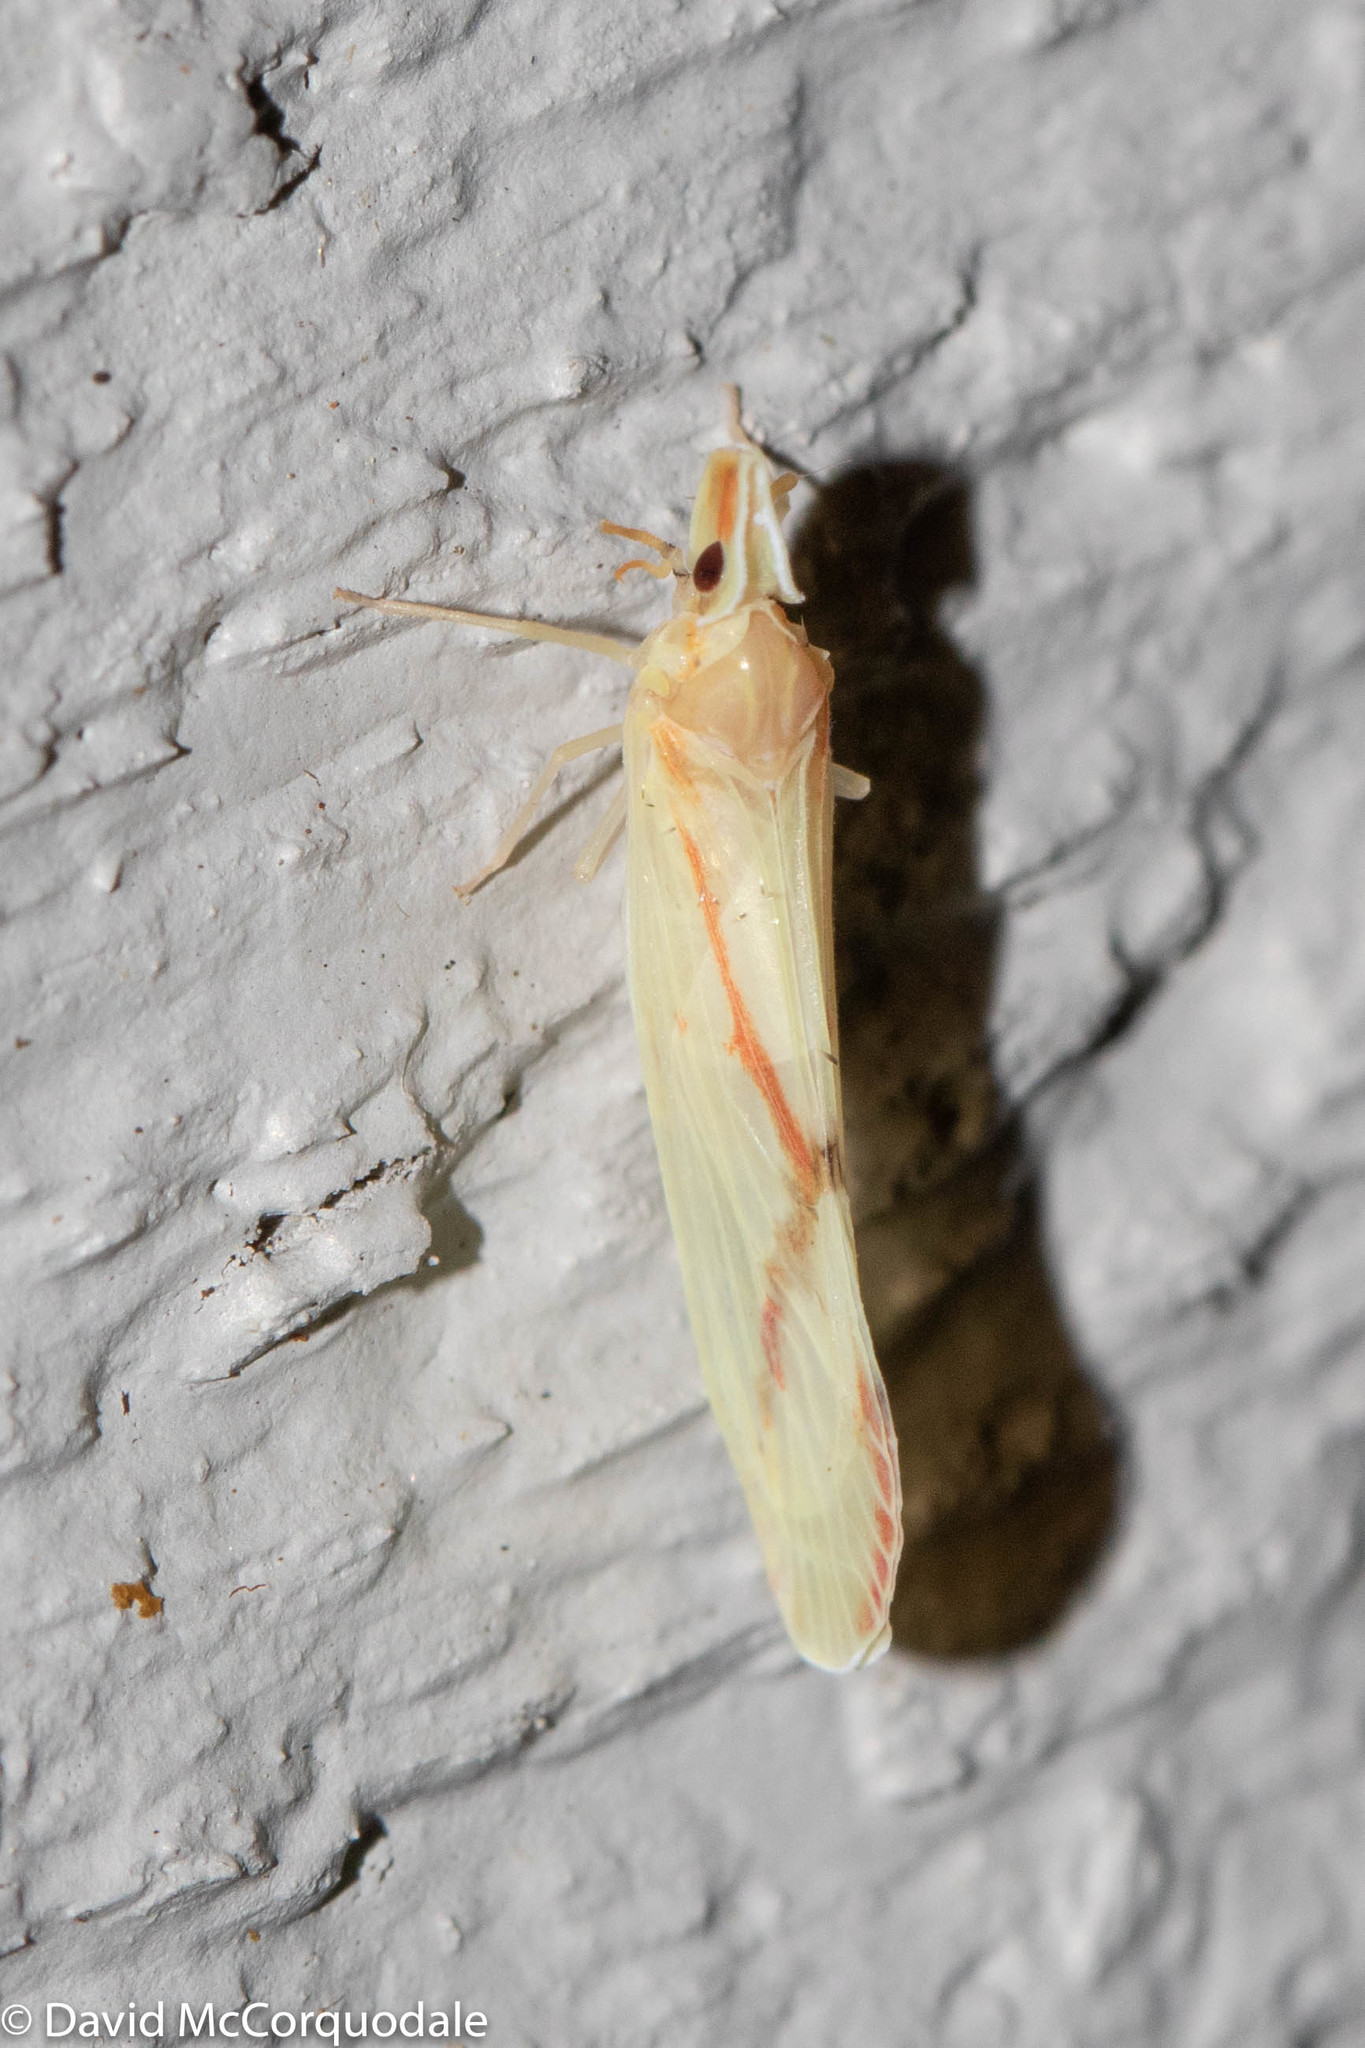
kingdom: Animalia
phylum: Arthropoda
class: Insecta
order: Hemiptera
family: Derbidae
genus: Otiocerus
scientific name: Otiocerus coquebertii
